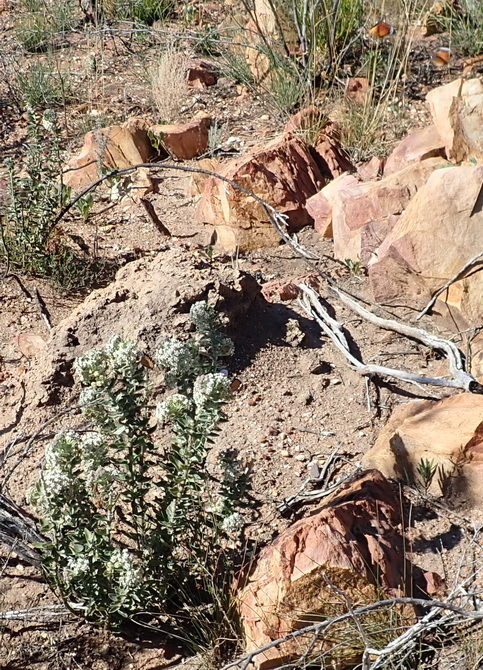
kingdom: Plantae
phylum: Tracheophyta
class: Magnoliopsida
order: Gentianales
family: Apocynaceae
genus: Gomphocarpus
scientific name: Gomphocarpus cancellatus
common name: Wild cotton
